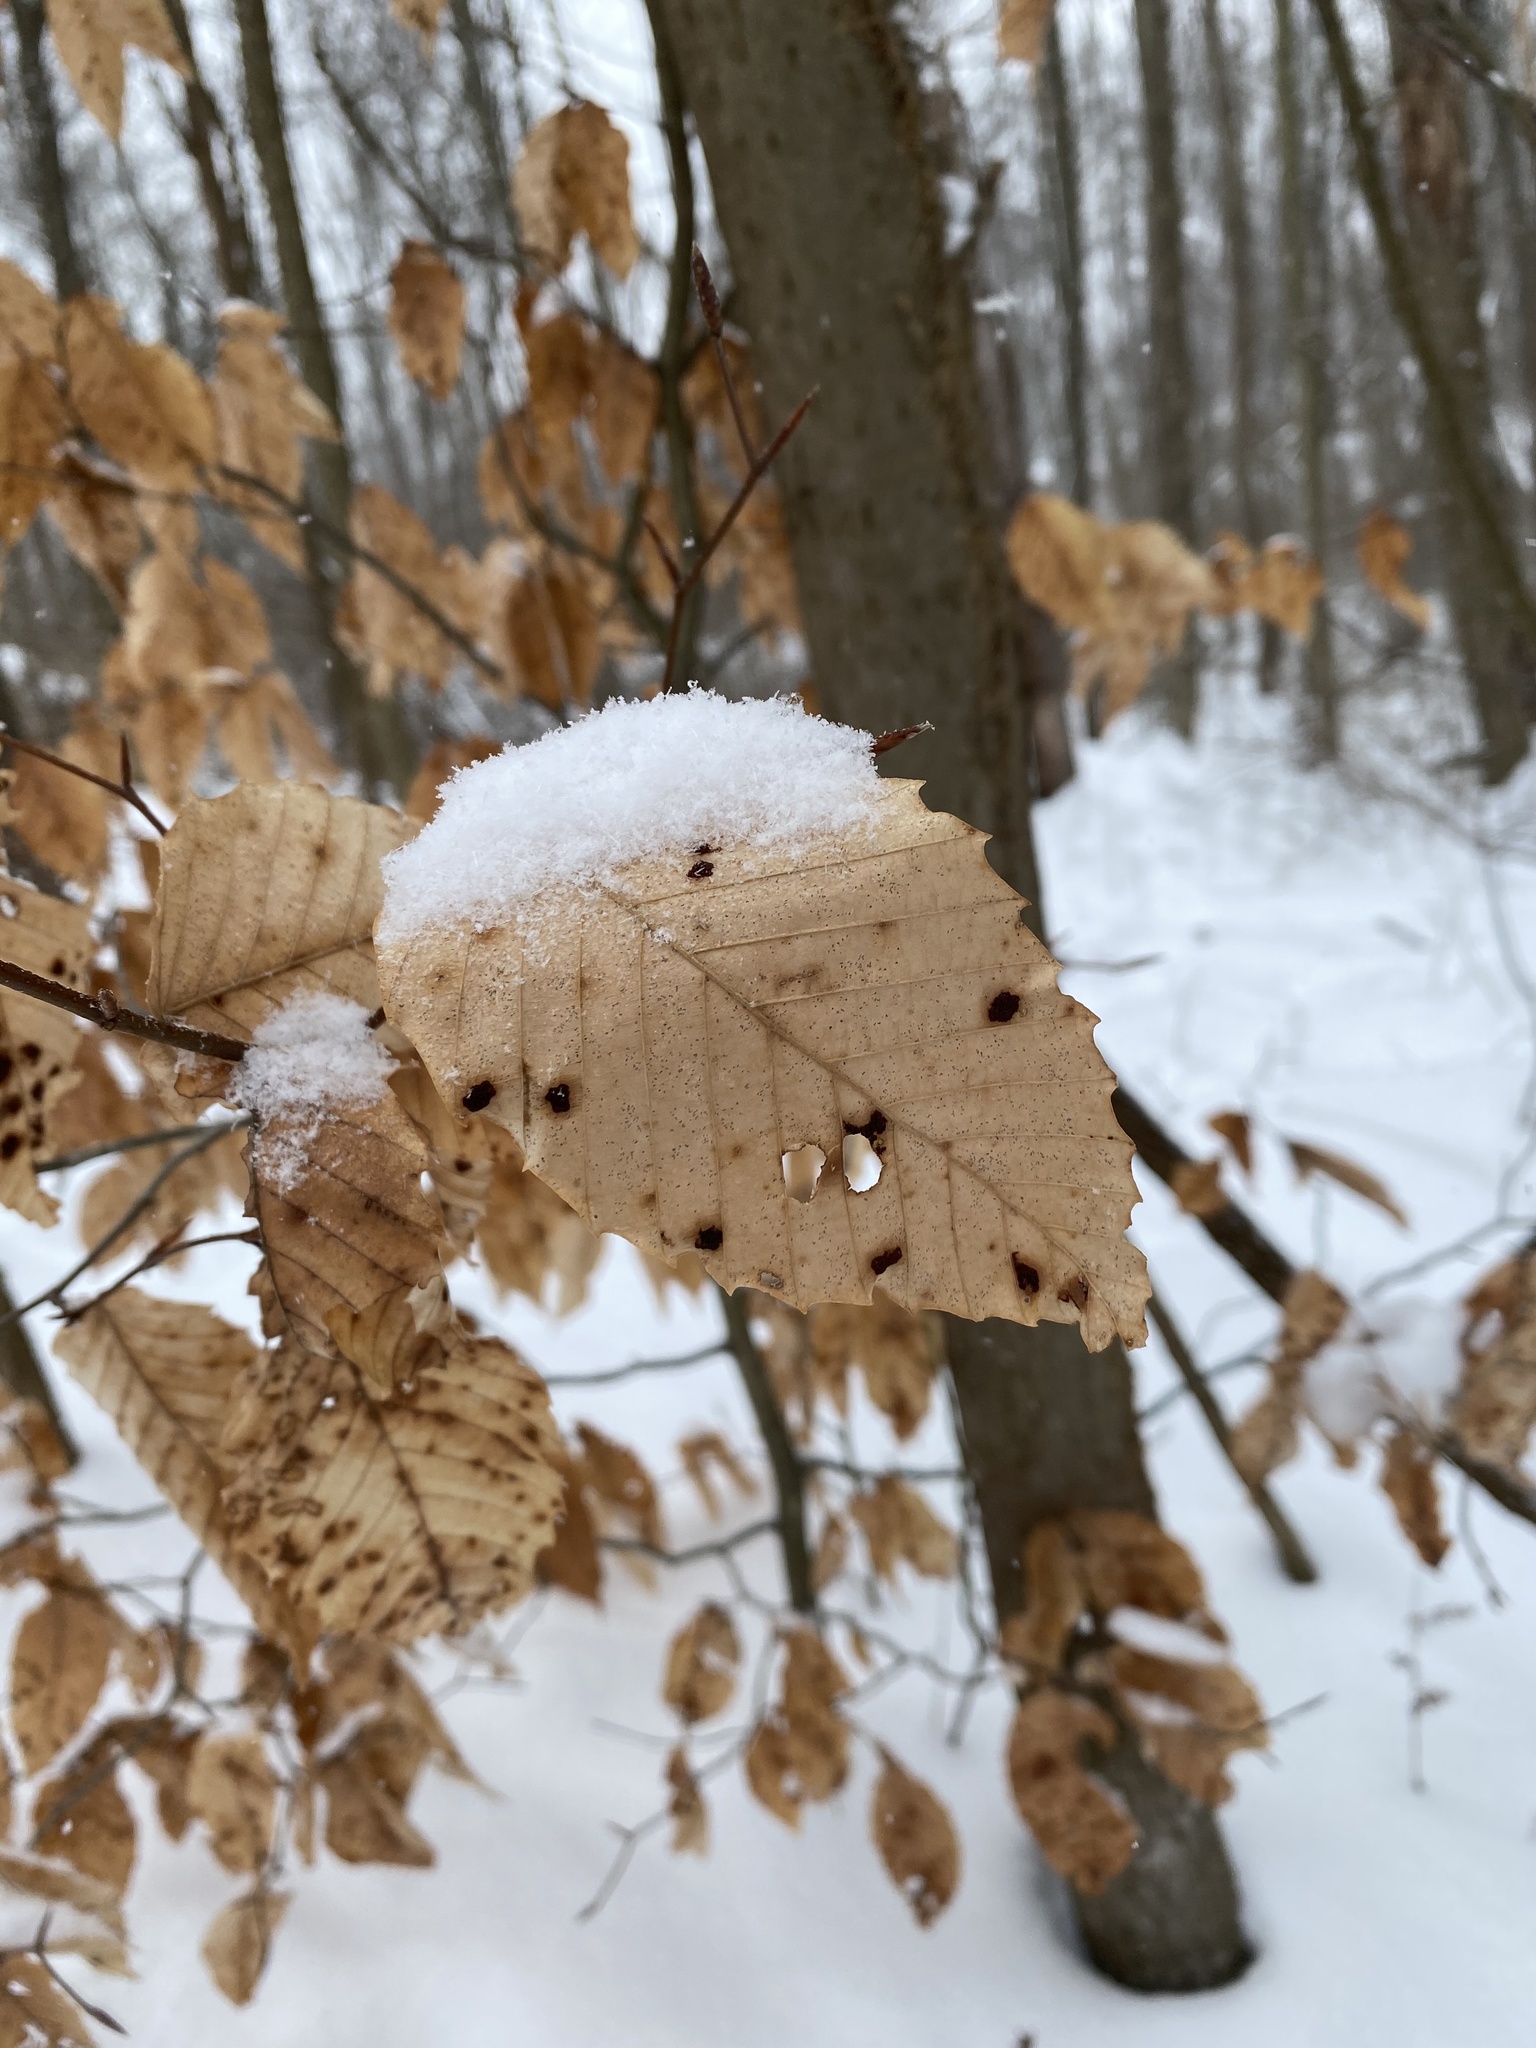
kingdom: Plantae
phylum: Tracheophyta
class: Magnoliopsida
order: Fagales
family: Fagaceae
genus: Fagus
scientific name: Fagus grandifolia
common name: American beech
